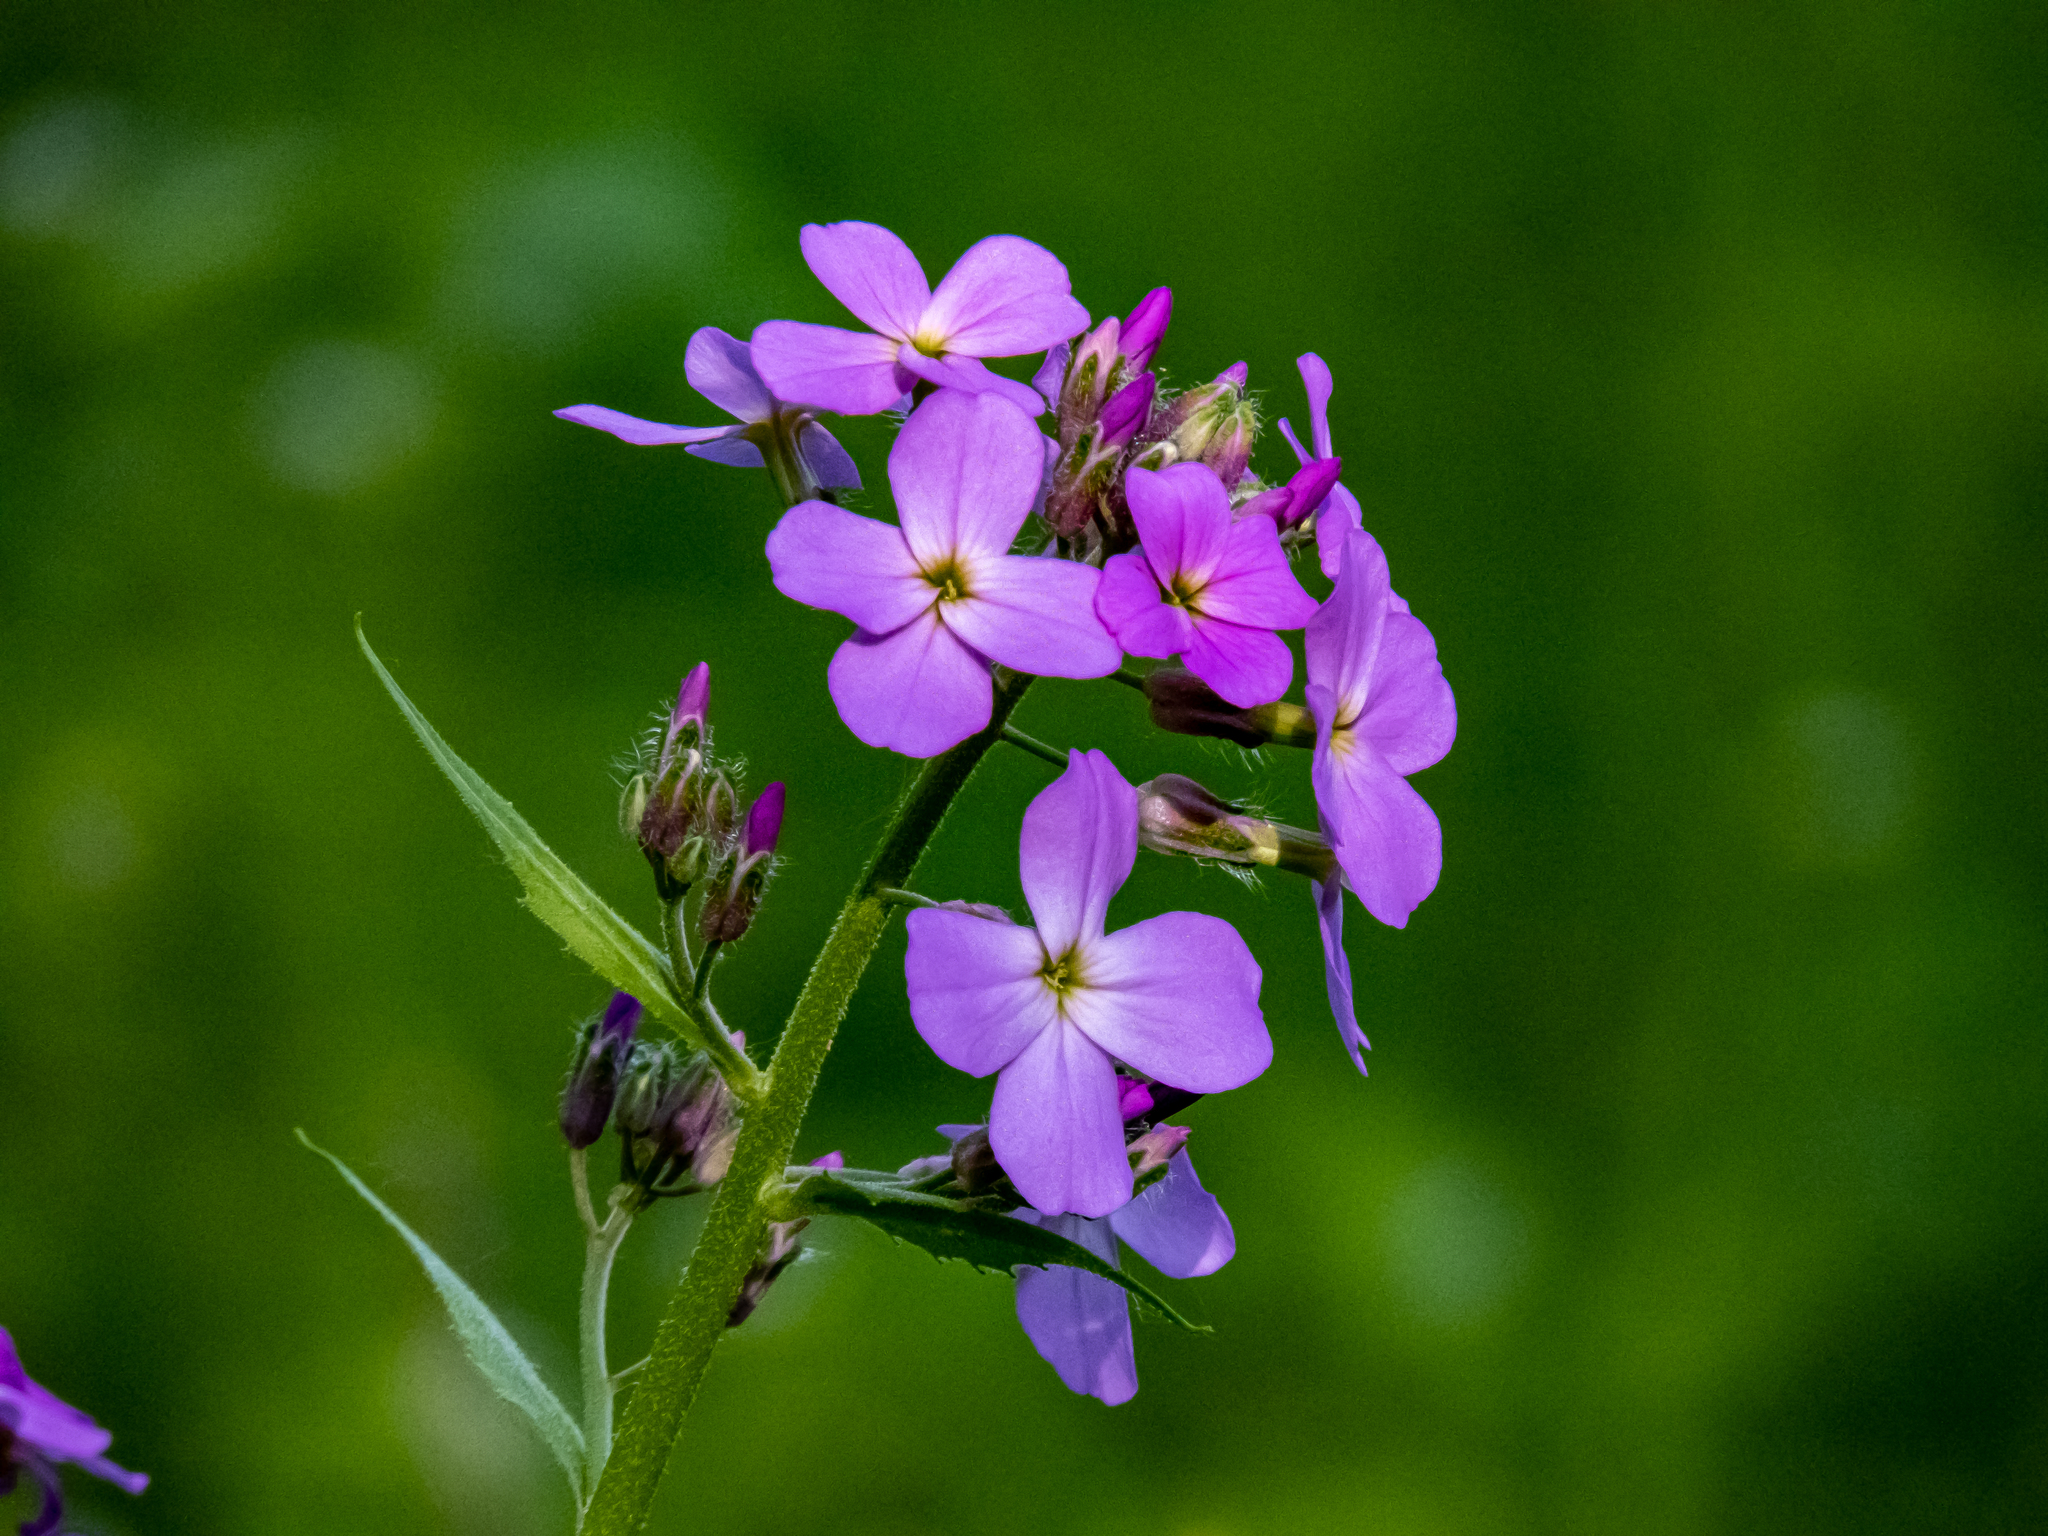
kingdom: Plantae
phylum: Tracheophyta
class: Magnoliopsida
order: Brassicales
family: Brassicaceae
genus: Hesperis
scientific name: Hesperis matronalis
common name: Dame's-violet
